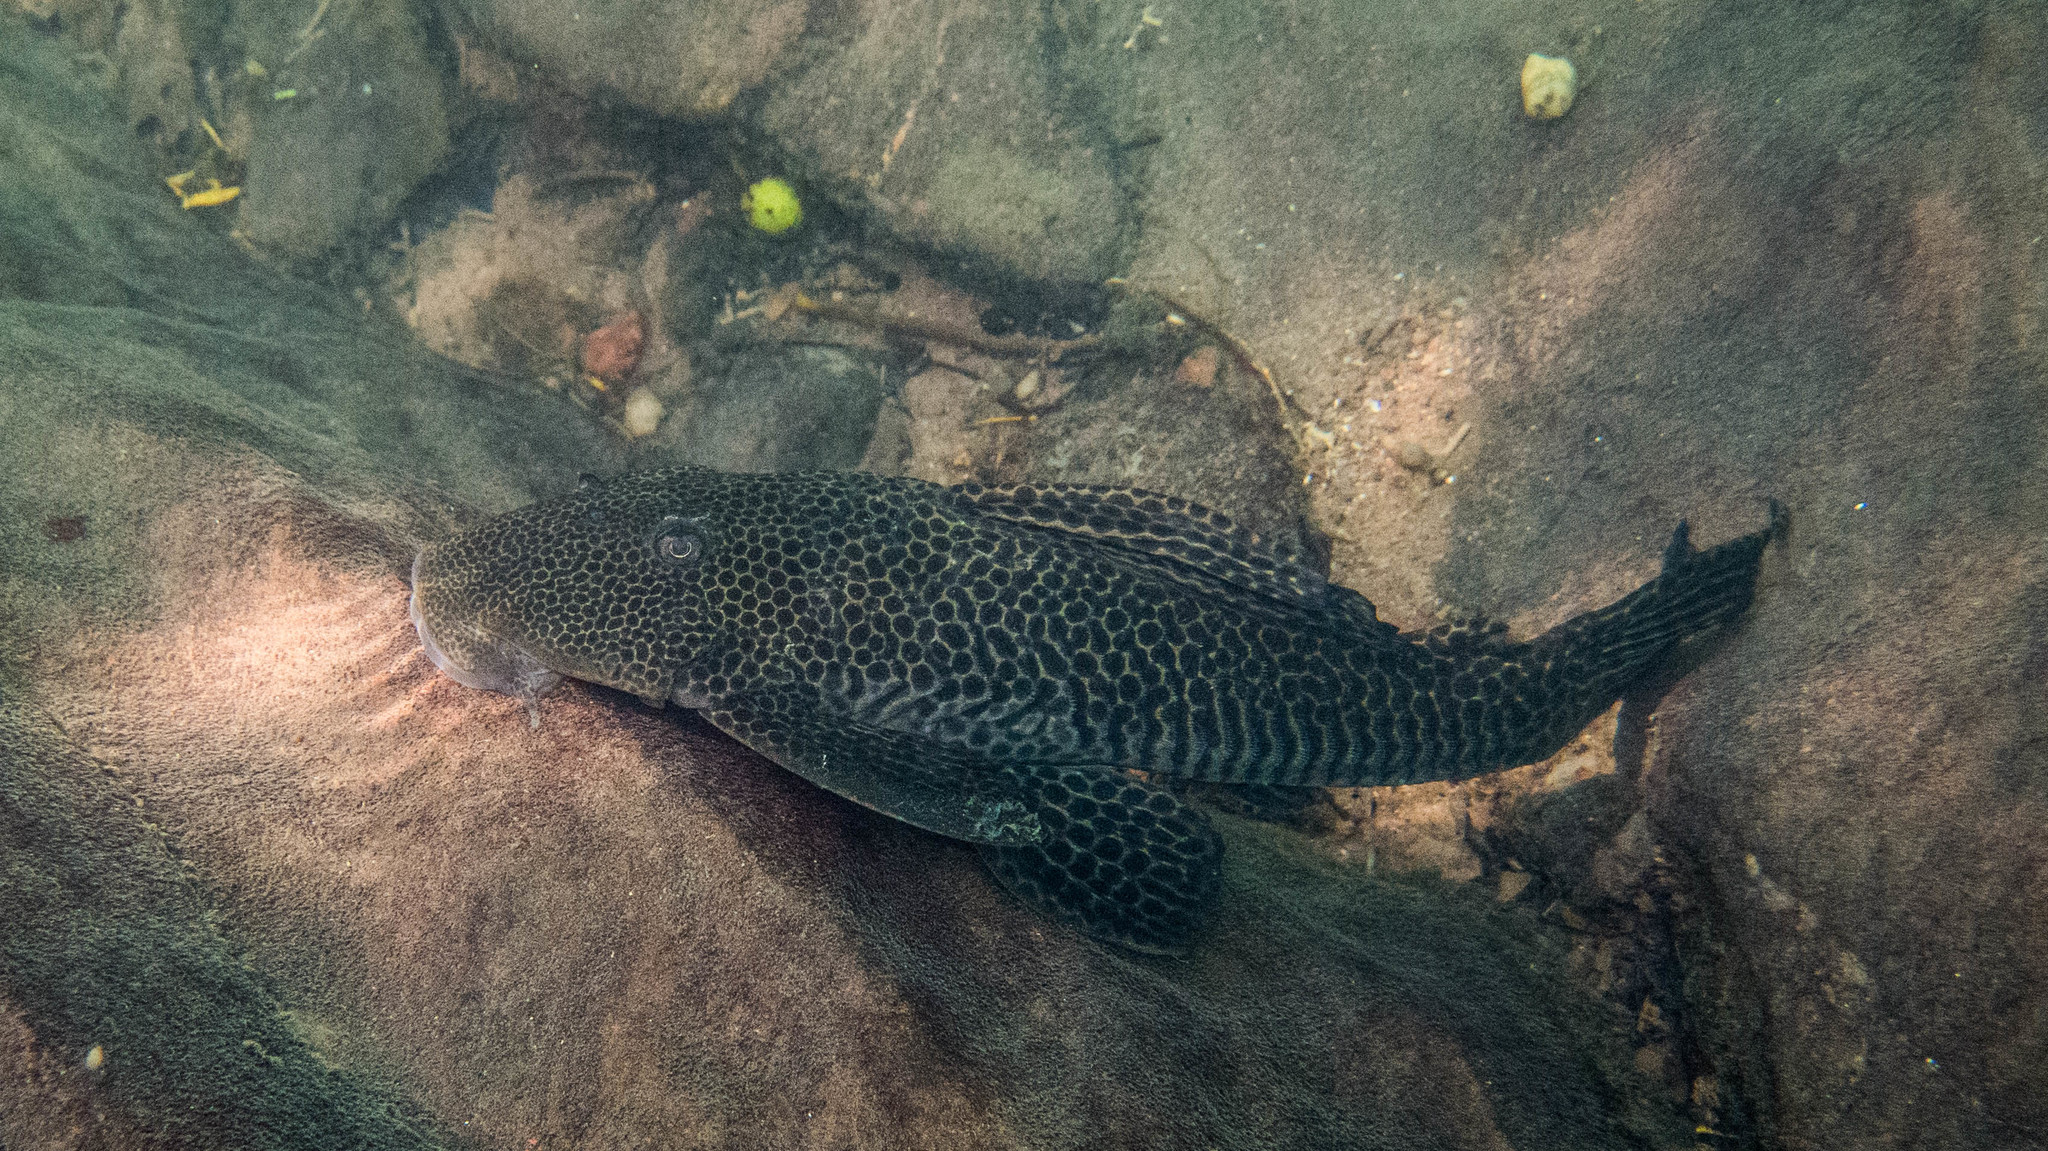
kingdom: Animalia
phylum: Chordata
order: Siluriformes
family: Loricariidae
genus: Hypostomus
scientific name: Hypostomus froehlichi
